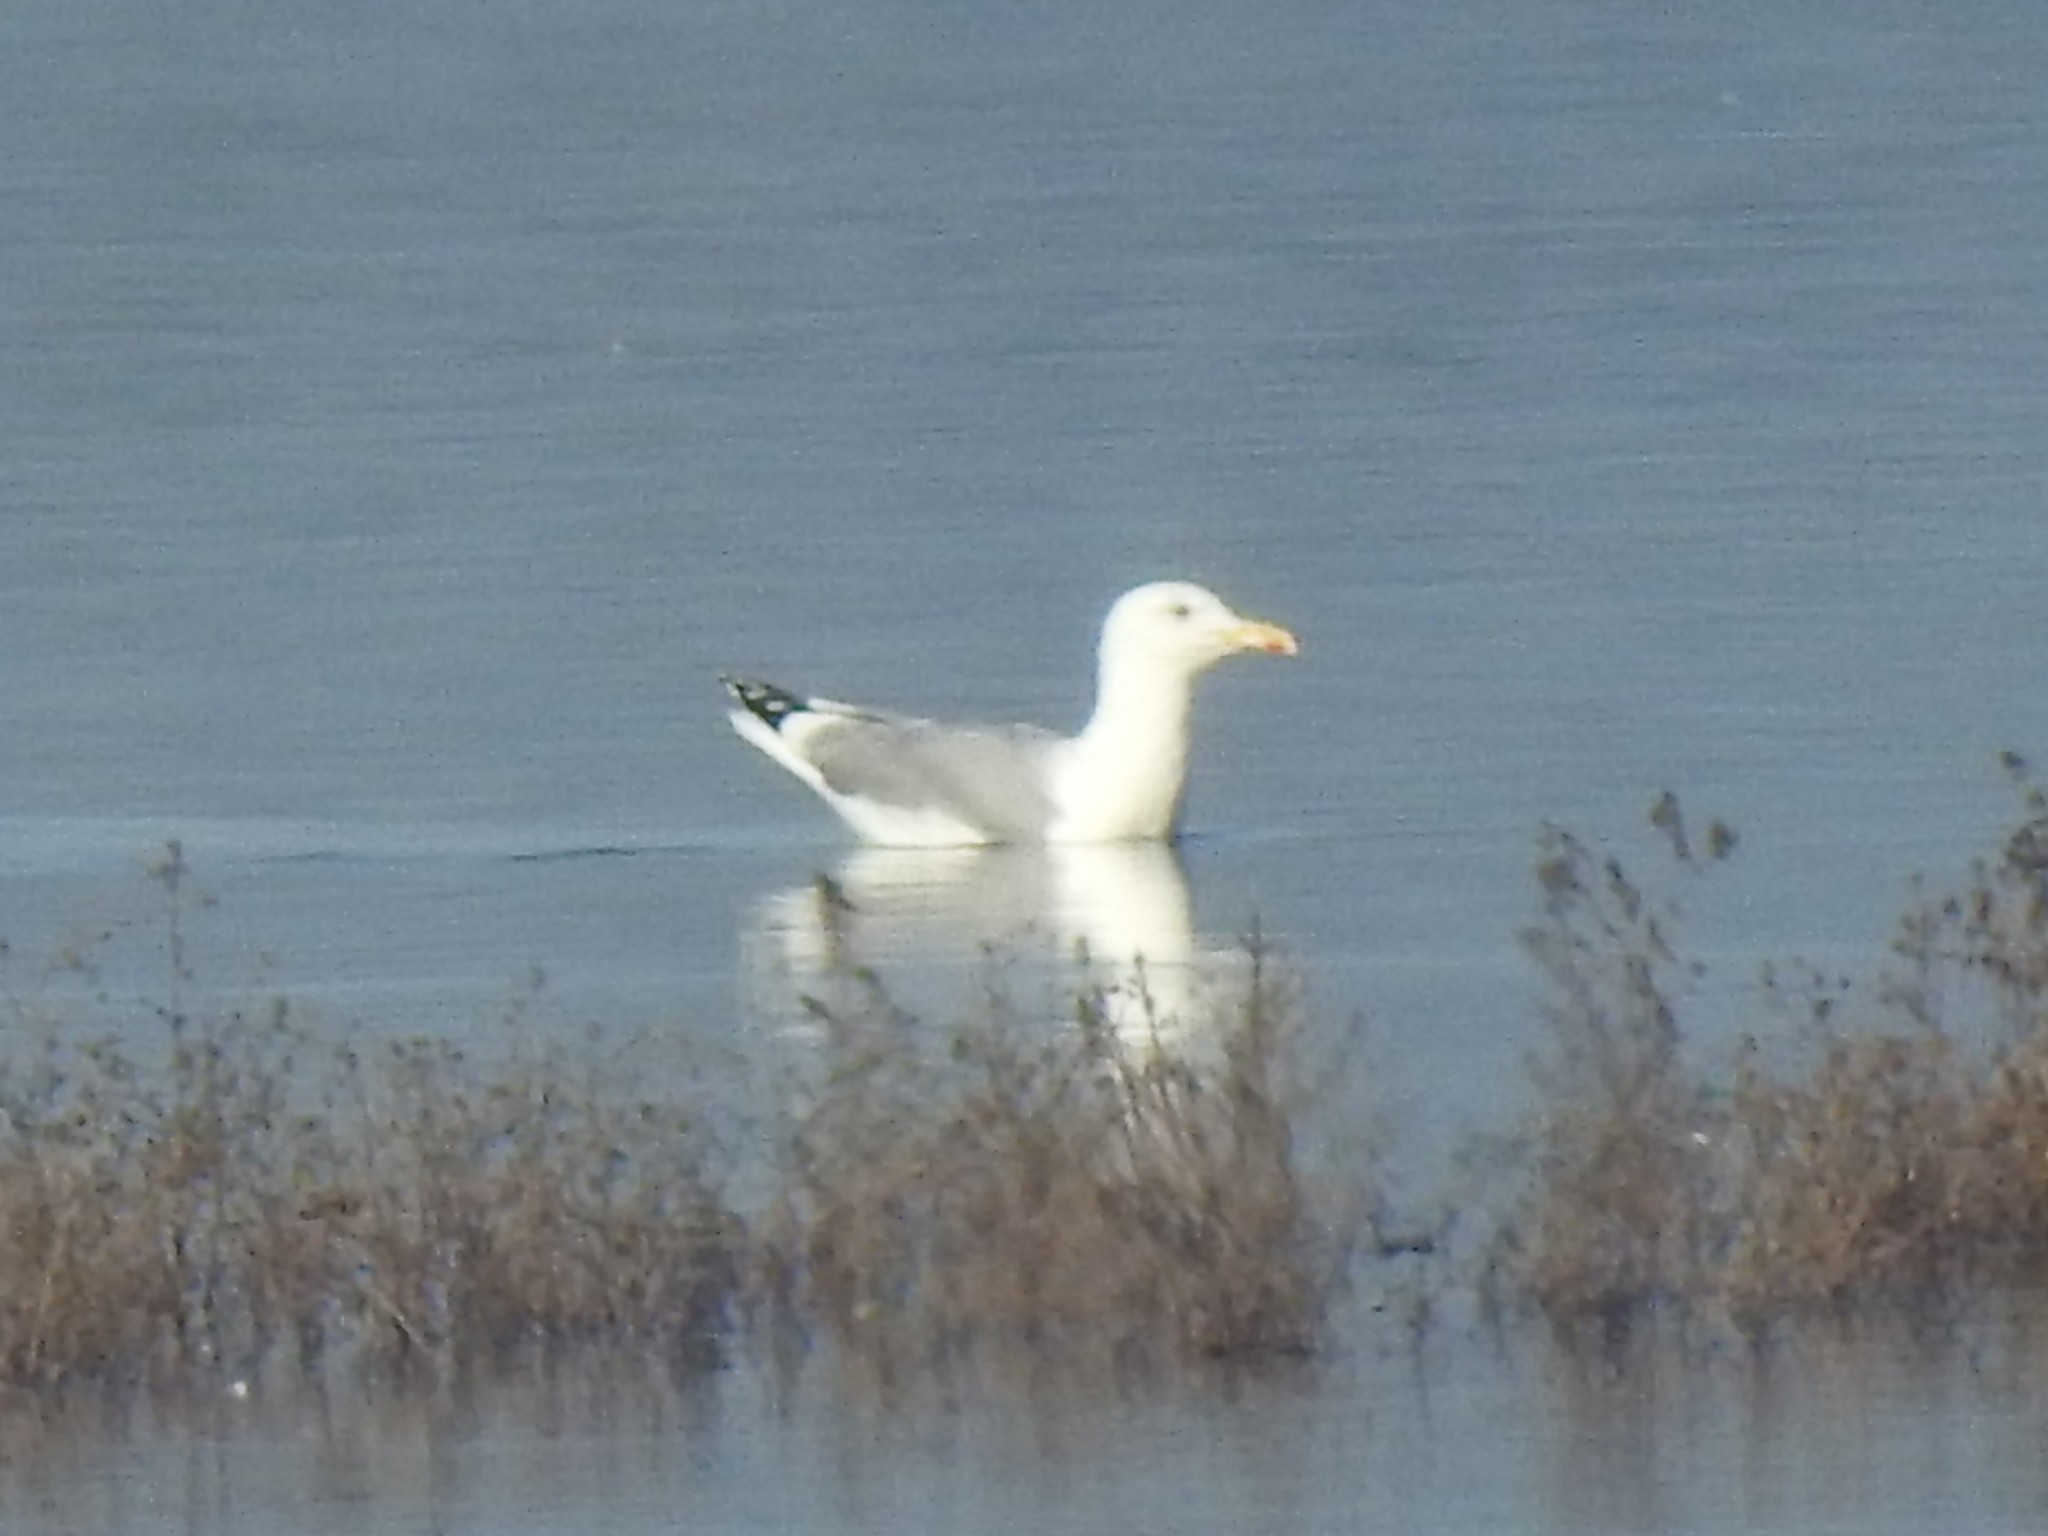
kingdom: Animalia
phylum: Chordata
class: Aves
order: Charadriiformes
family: Laridae
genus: Larus
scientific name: Larus cachinnans
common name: Caspian gull
